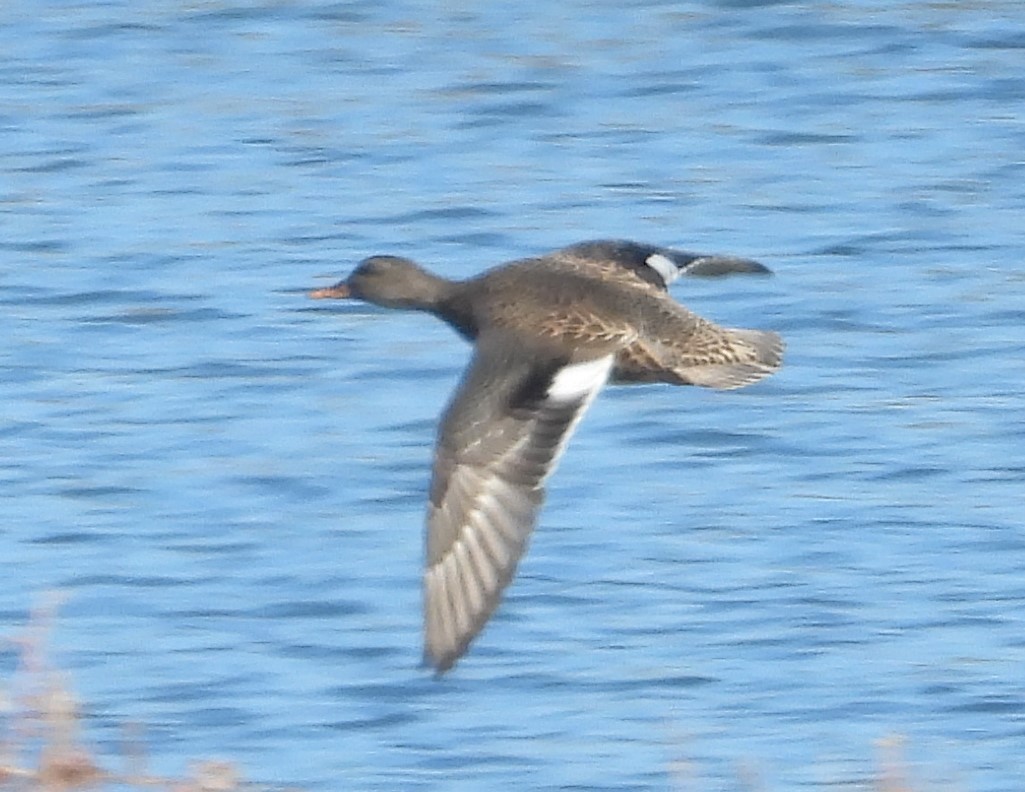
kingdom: Animalia
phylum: Chordata
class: Aves
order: Anseriformes
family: Anatidae
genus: Mareca
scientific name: Mareca strepera
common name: Gadwall
